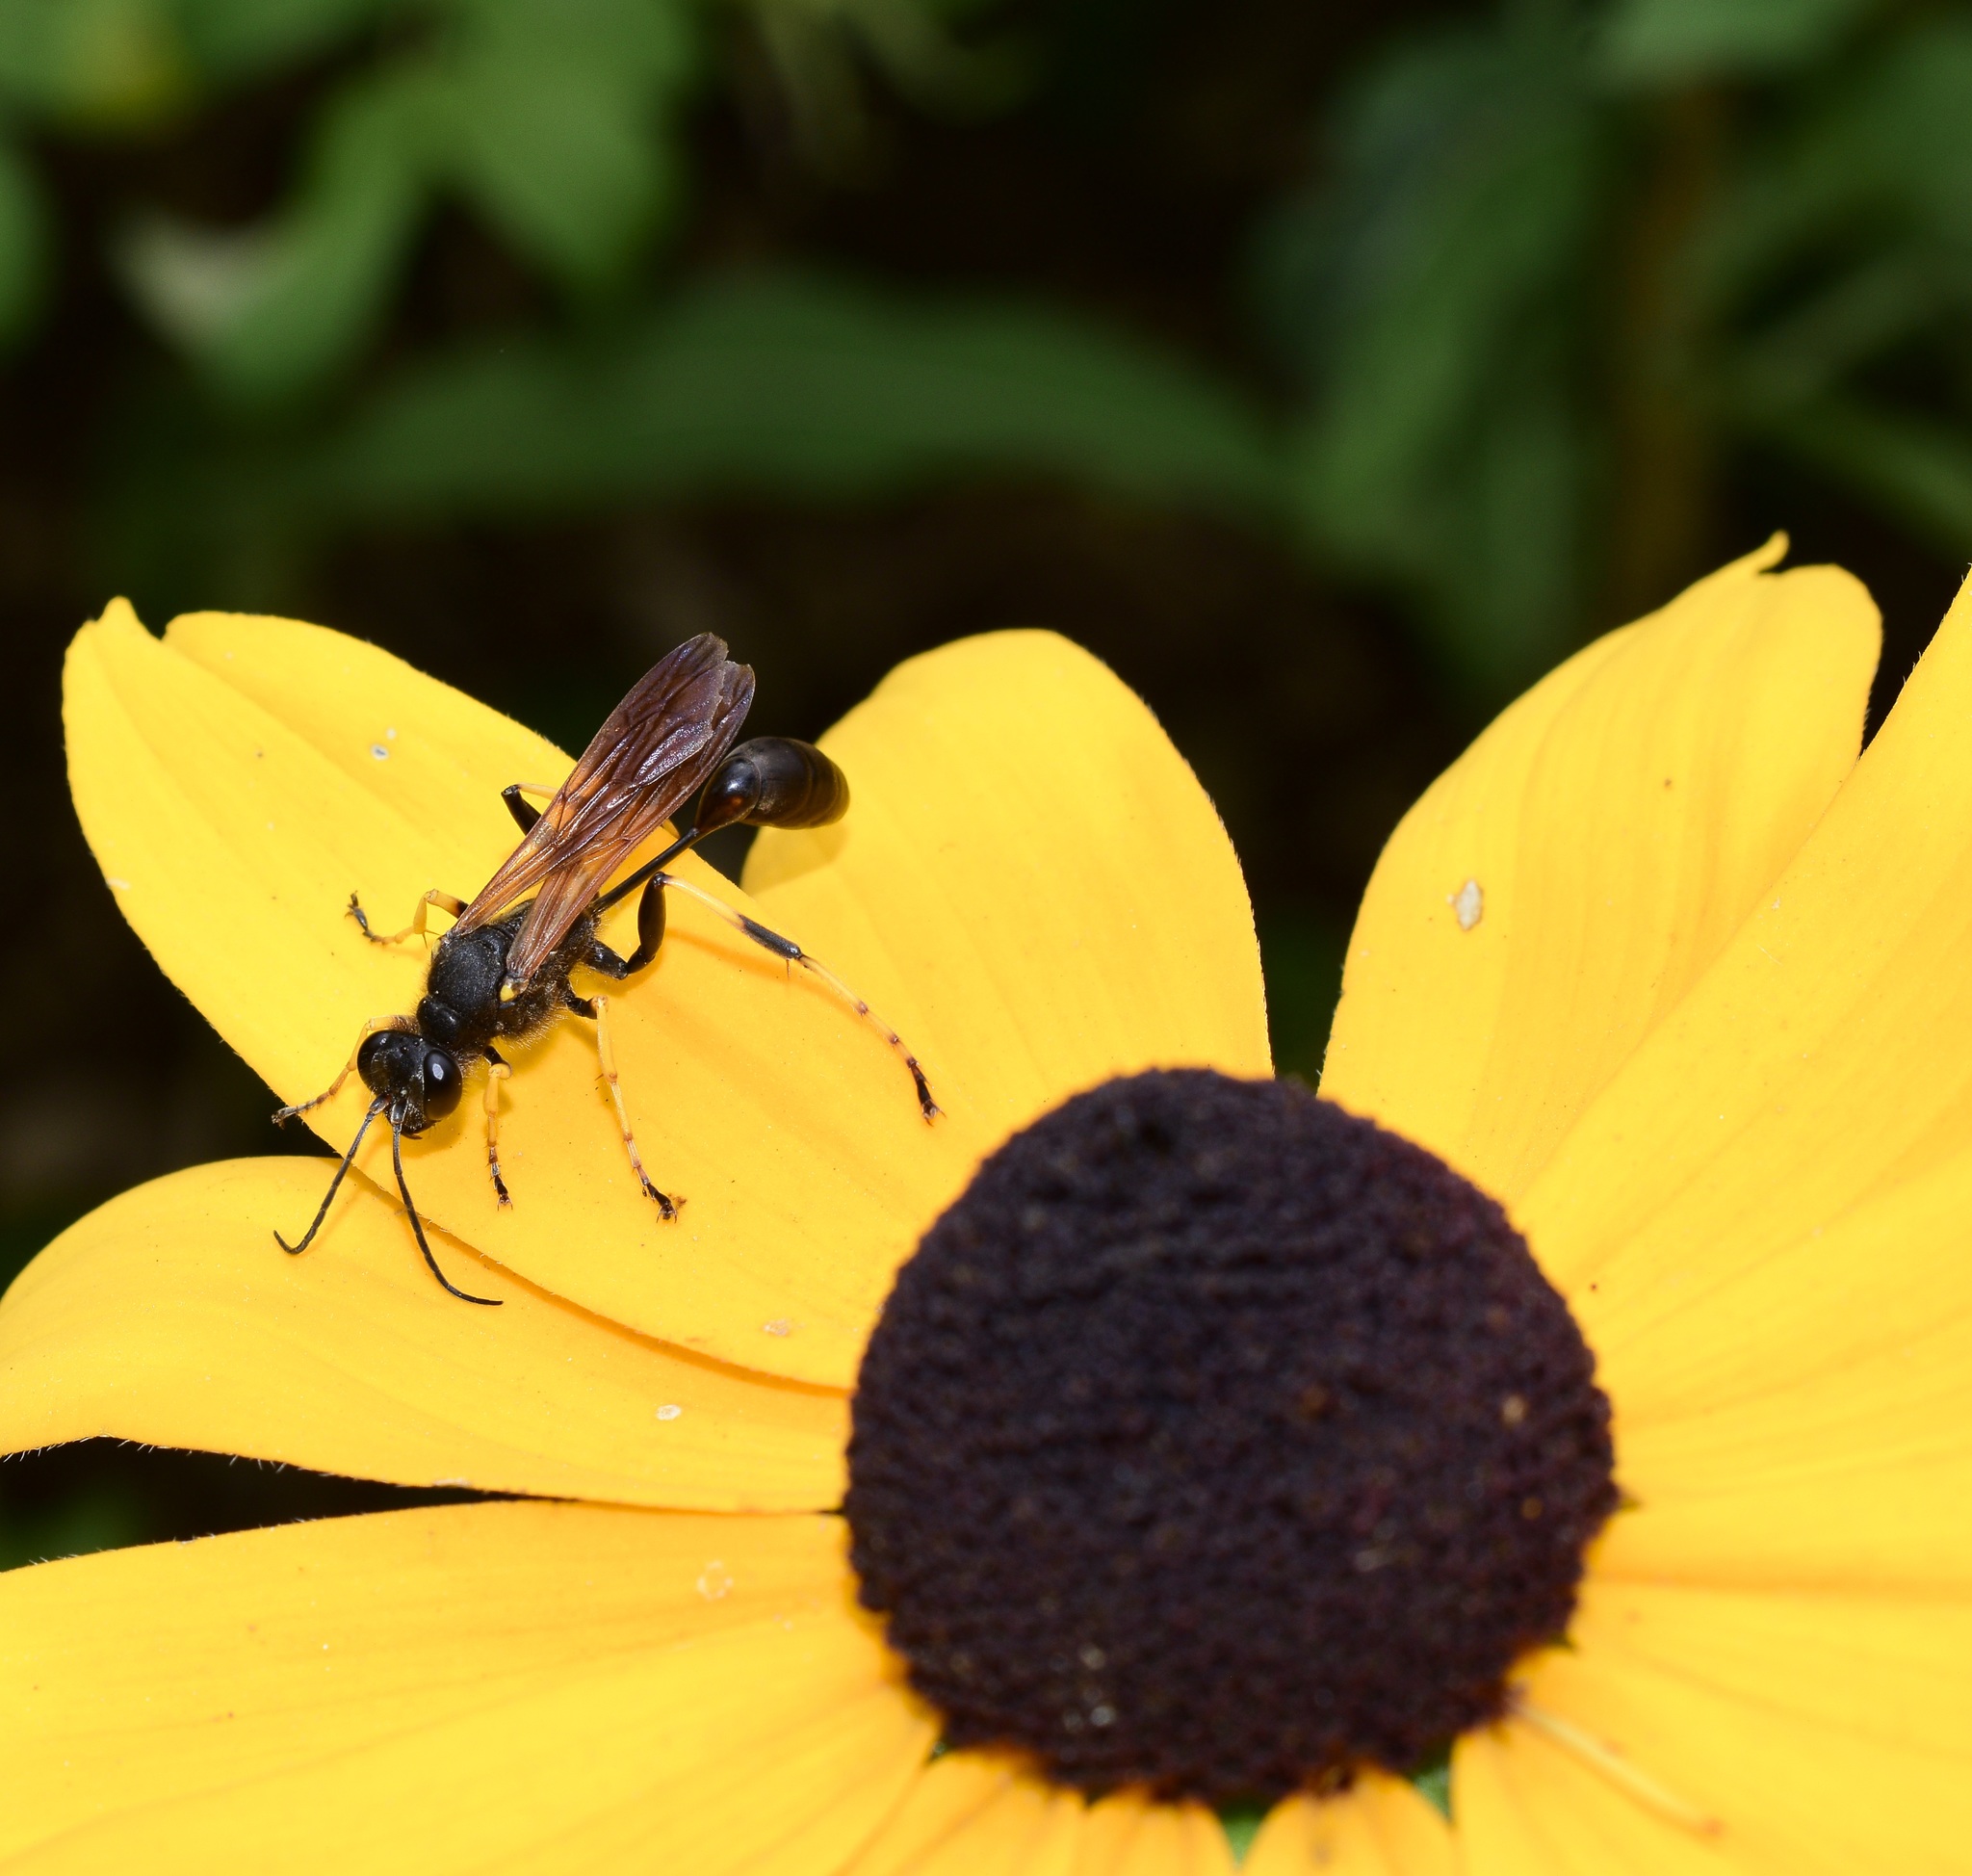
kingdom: Animalia
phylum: Arthropoda
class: Insecta
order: Hymenoptera
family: Sphecidae
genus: Sceliphron
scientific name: Sceliphron caementarium
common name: Mud dauber
